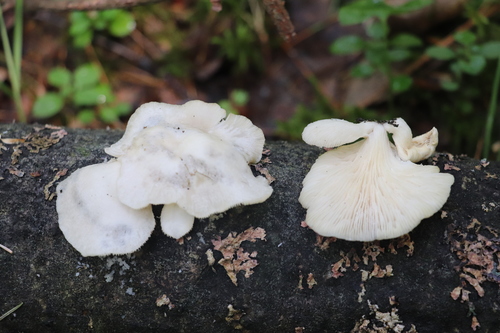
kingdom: Fungi
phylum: Basidiomycota
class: Agaricomycetes
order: Agaricales
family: Pleurotaceae
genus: Pleurotus
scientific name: Pleurotus pulmonarius
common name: Pale oyster
